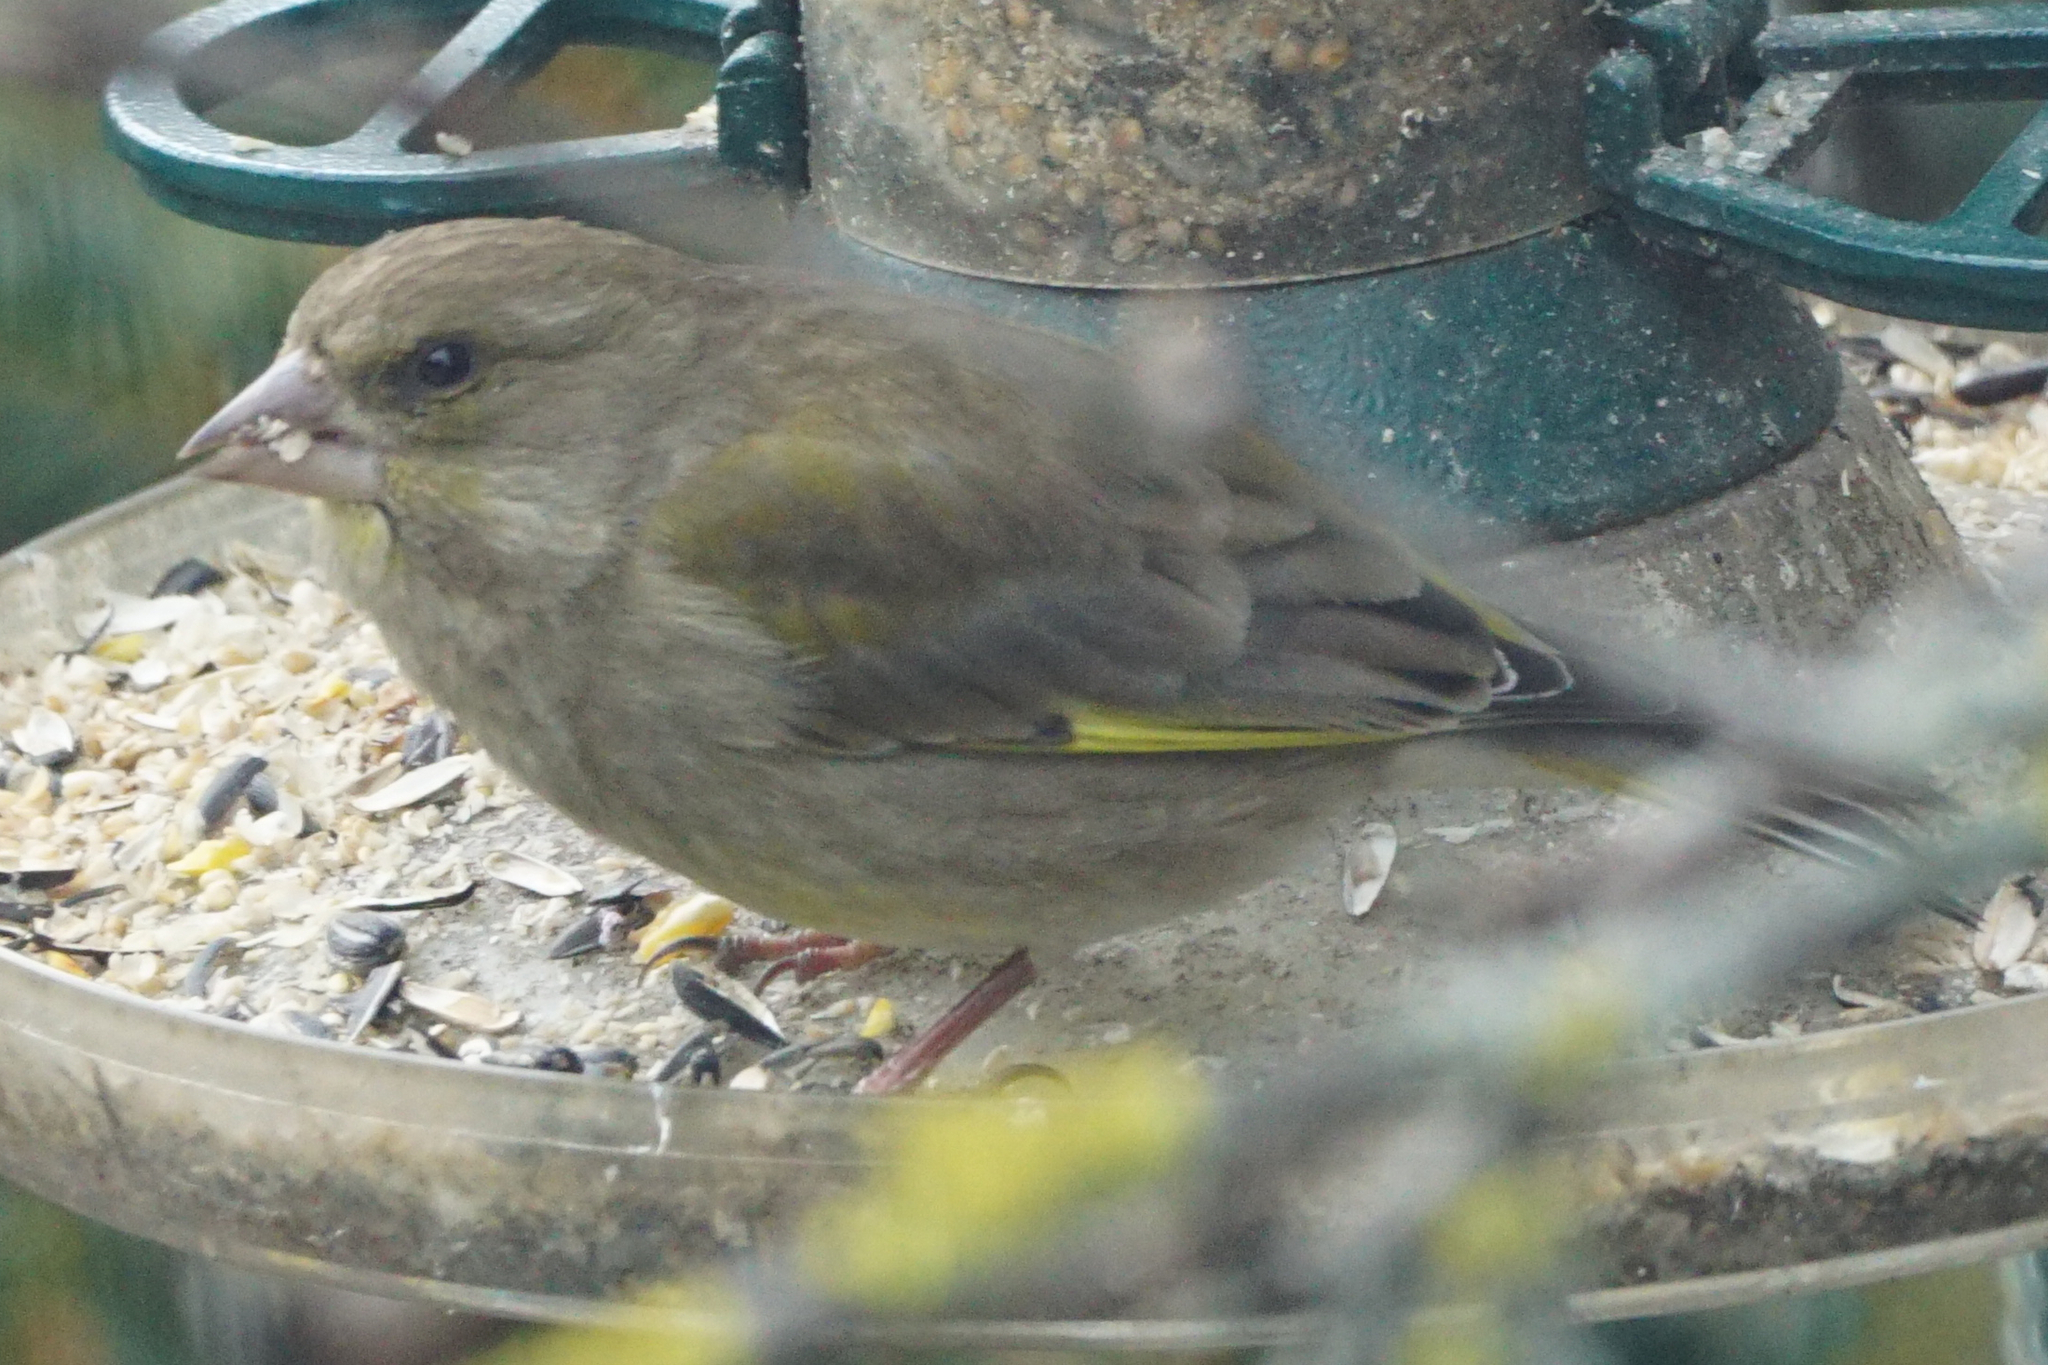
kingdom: Plantae
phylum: Tracheophyta
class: Liliopsida
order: Poales
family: Poaceae
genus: Chloris
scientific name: Chloris chloris
